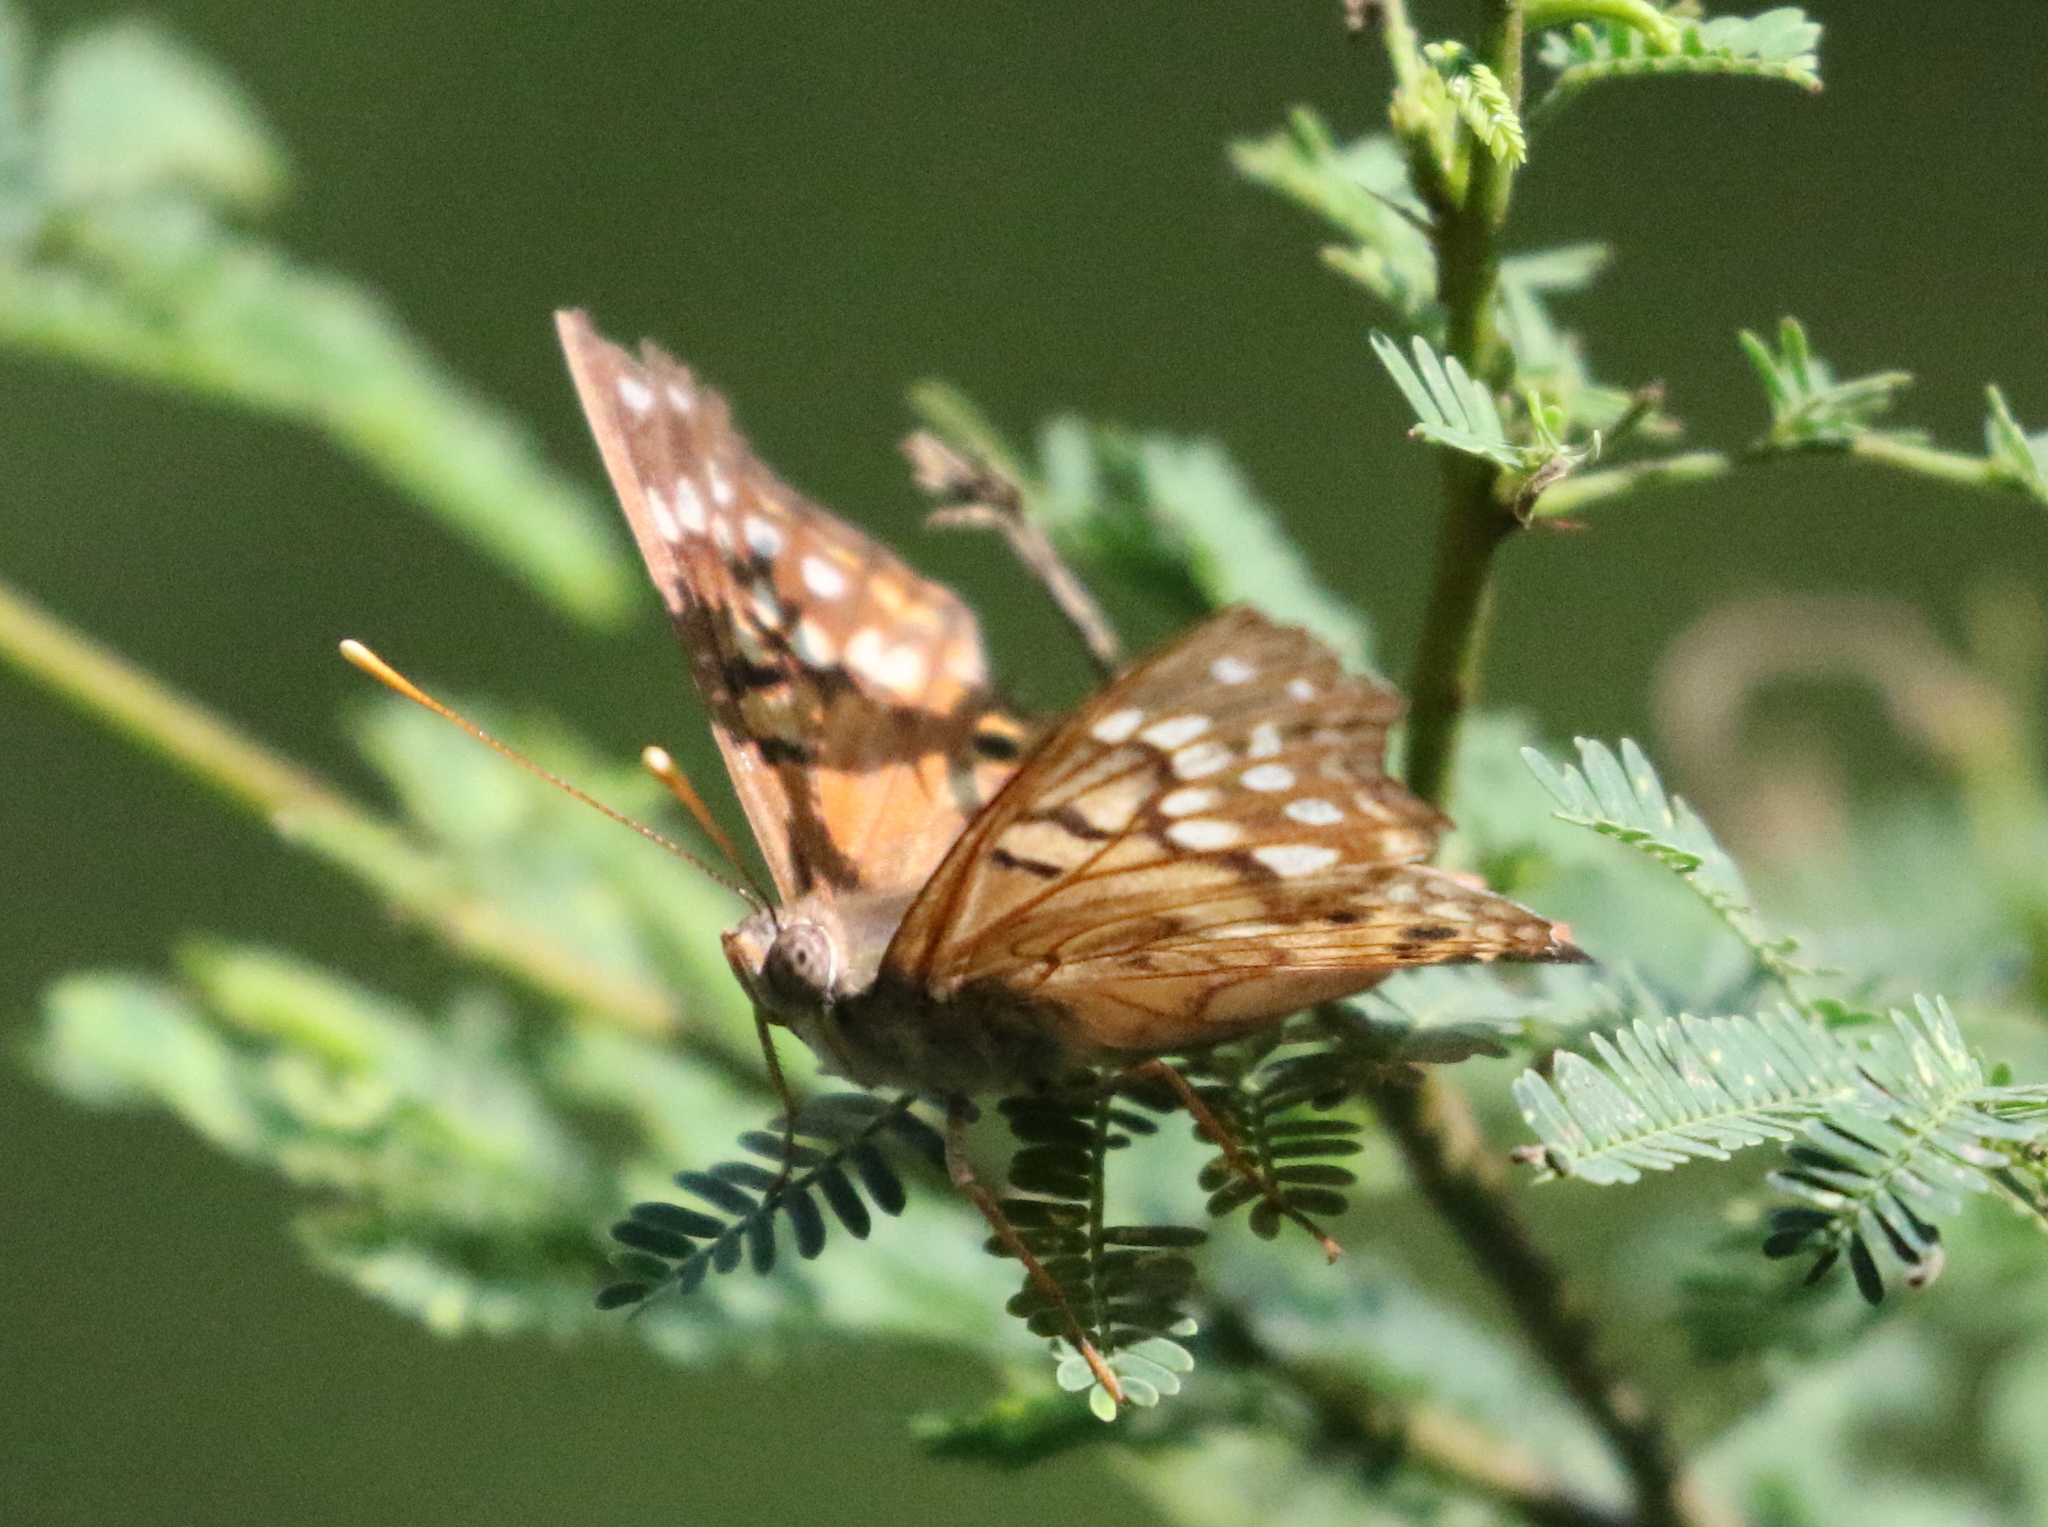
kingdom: Animalia
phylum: Arthropoda
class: Insecta
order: Lepidoptera
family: Nymphalidae
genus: Asterocampa
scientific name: Asterocampa clyton
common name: Tawny emperor
